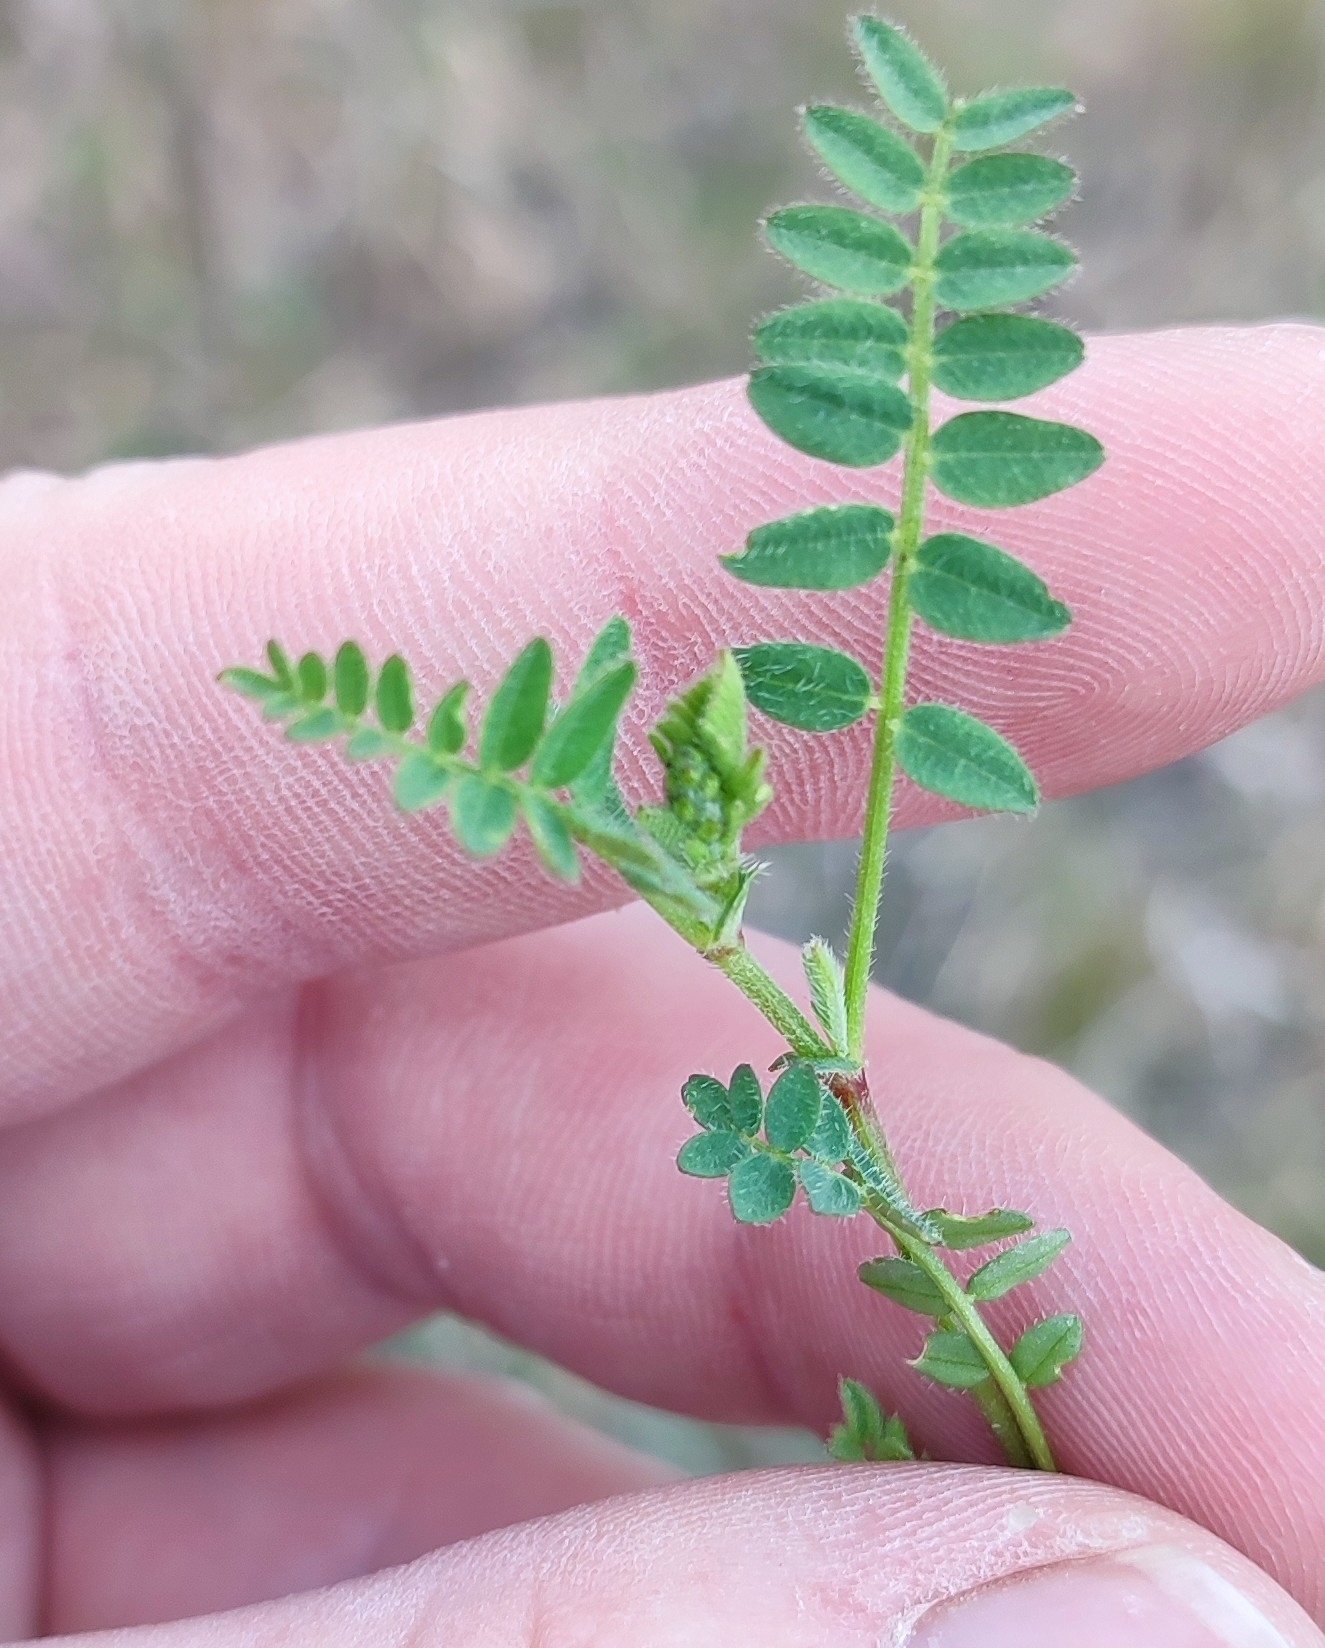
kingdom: Plantae
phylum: Tracheophyta
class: Magnoliopsida
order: Fabales
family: Fabaceae
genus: Astragalus
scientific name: Astragalus danicus
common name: Purple milk-vetch
